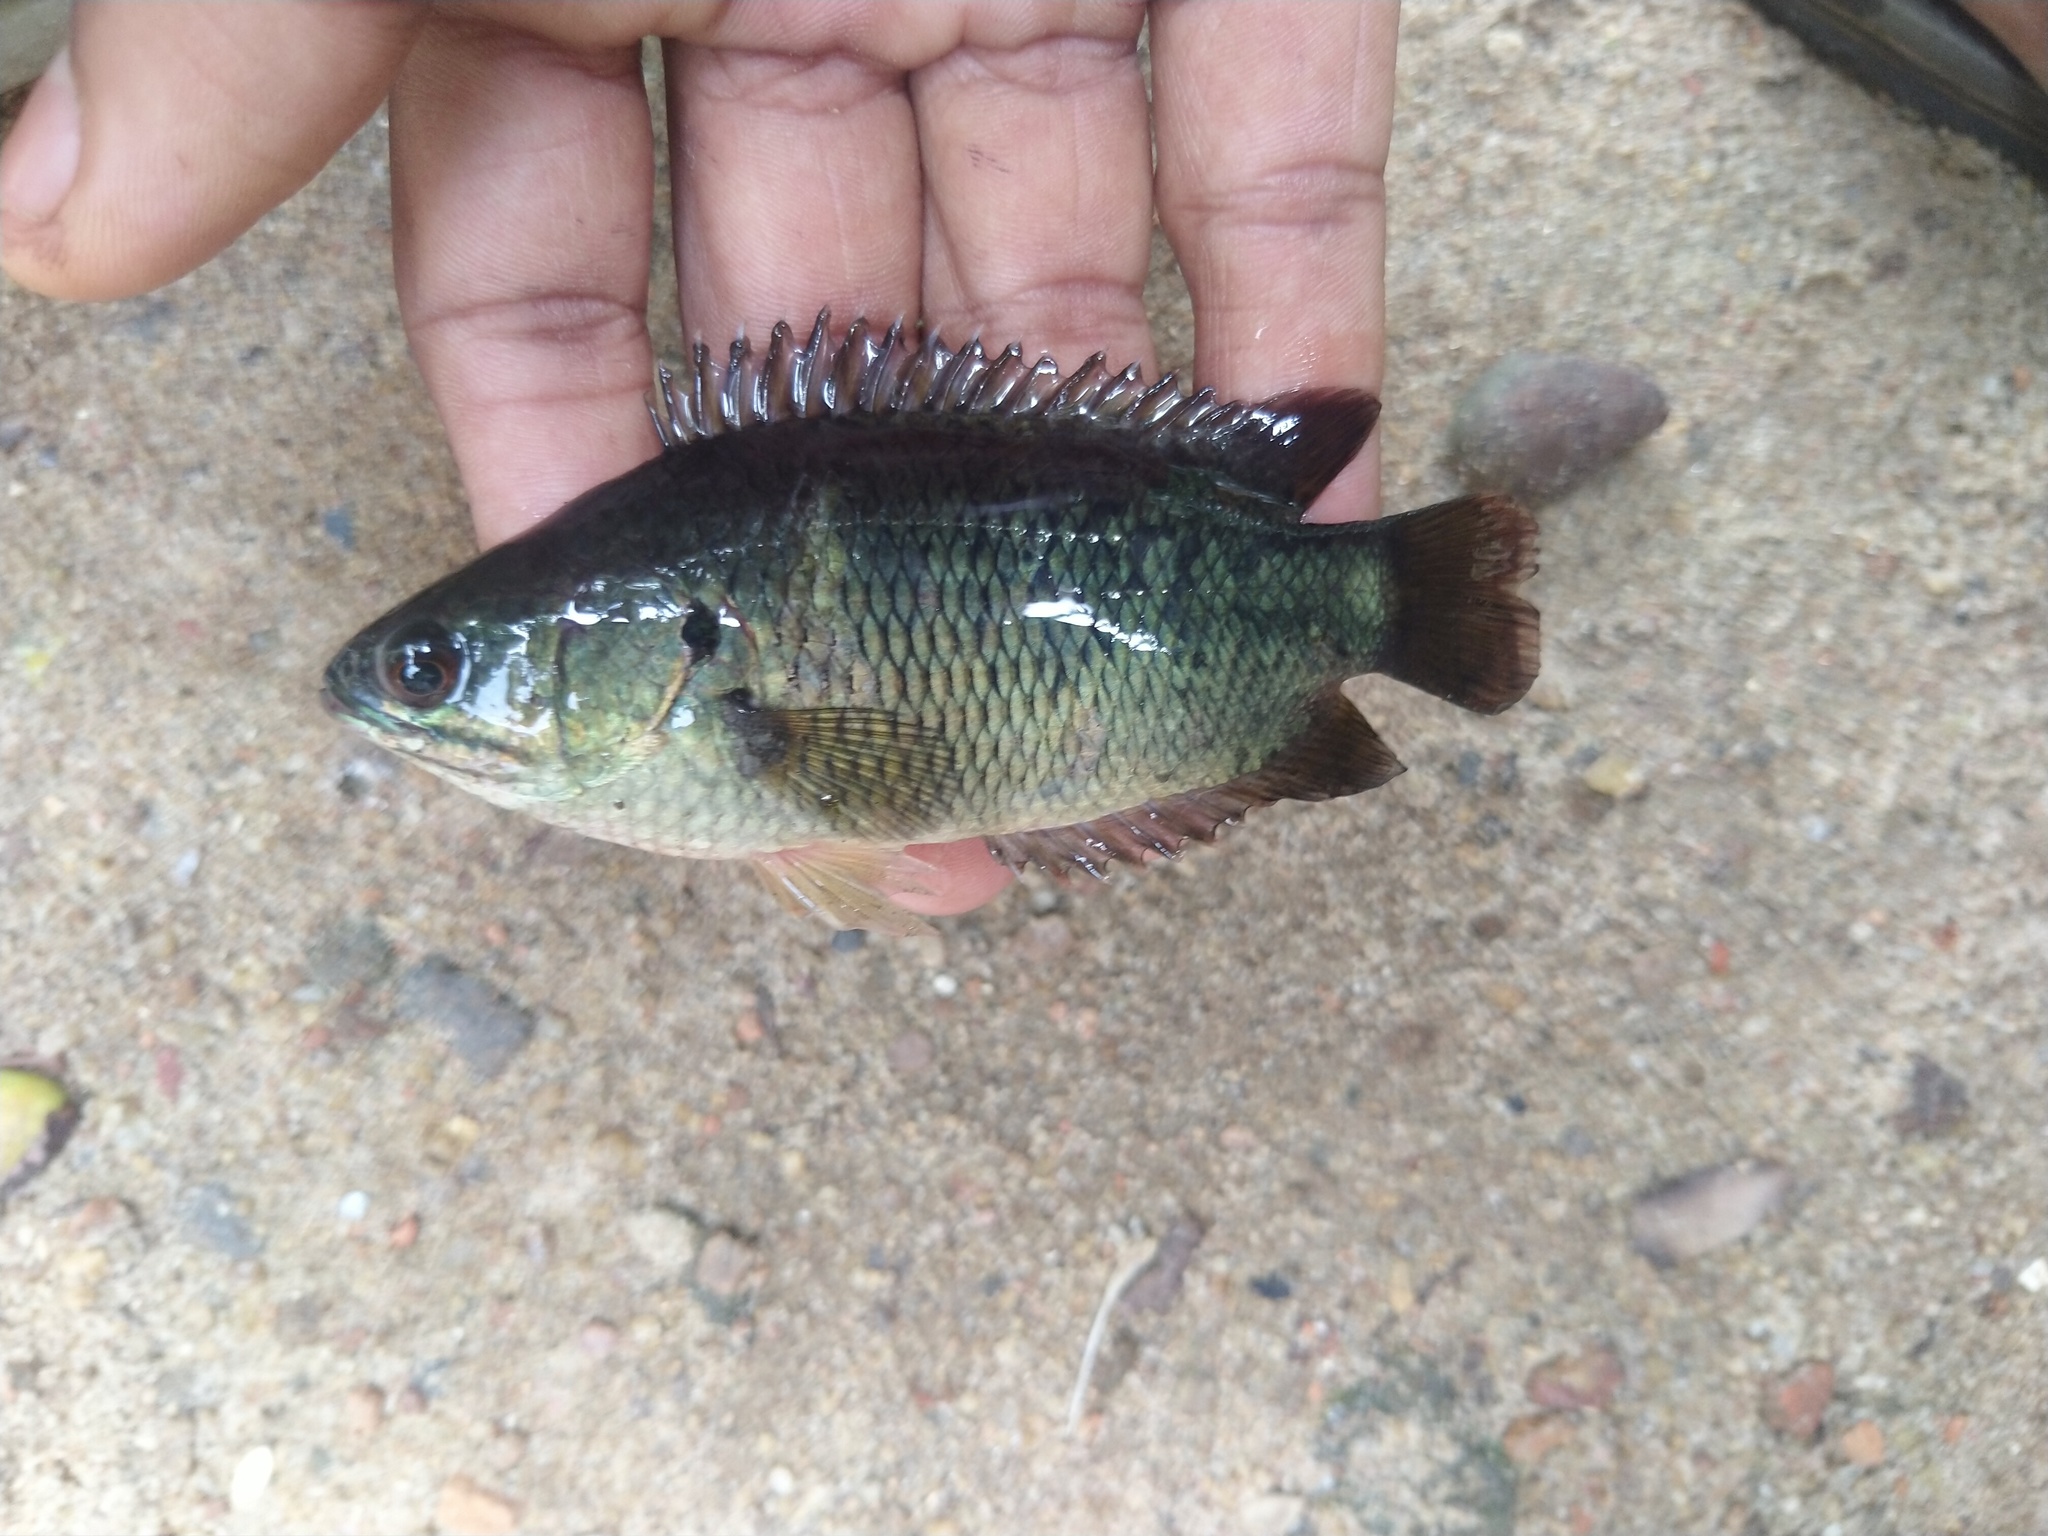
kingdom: Animalia
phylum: Chordata
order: Perciformes
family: Anabantidae
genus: Anabas
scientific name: Anabas testudineus
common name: Climbing perch
